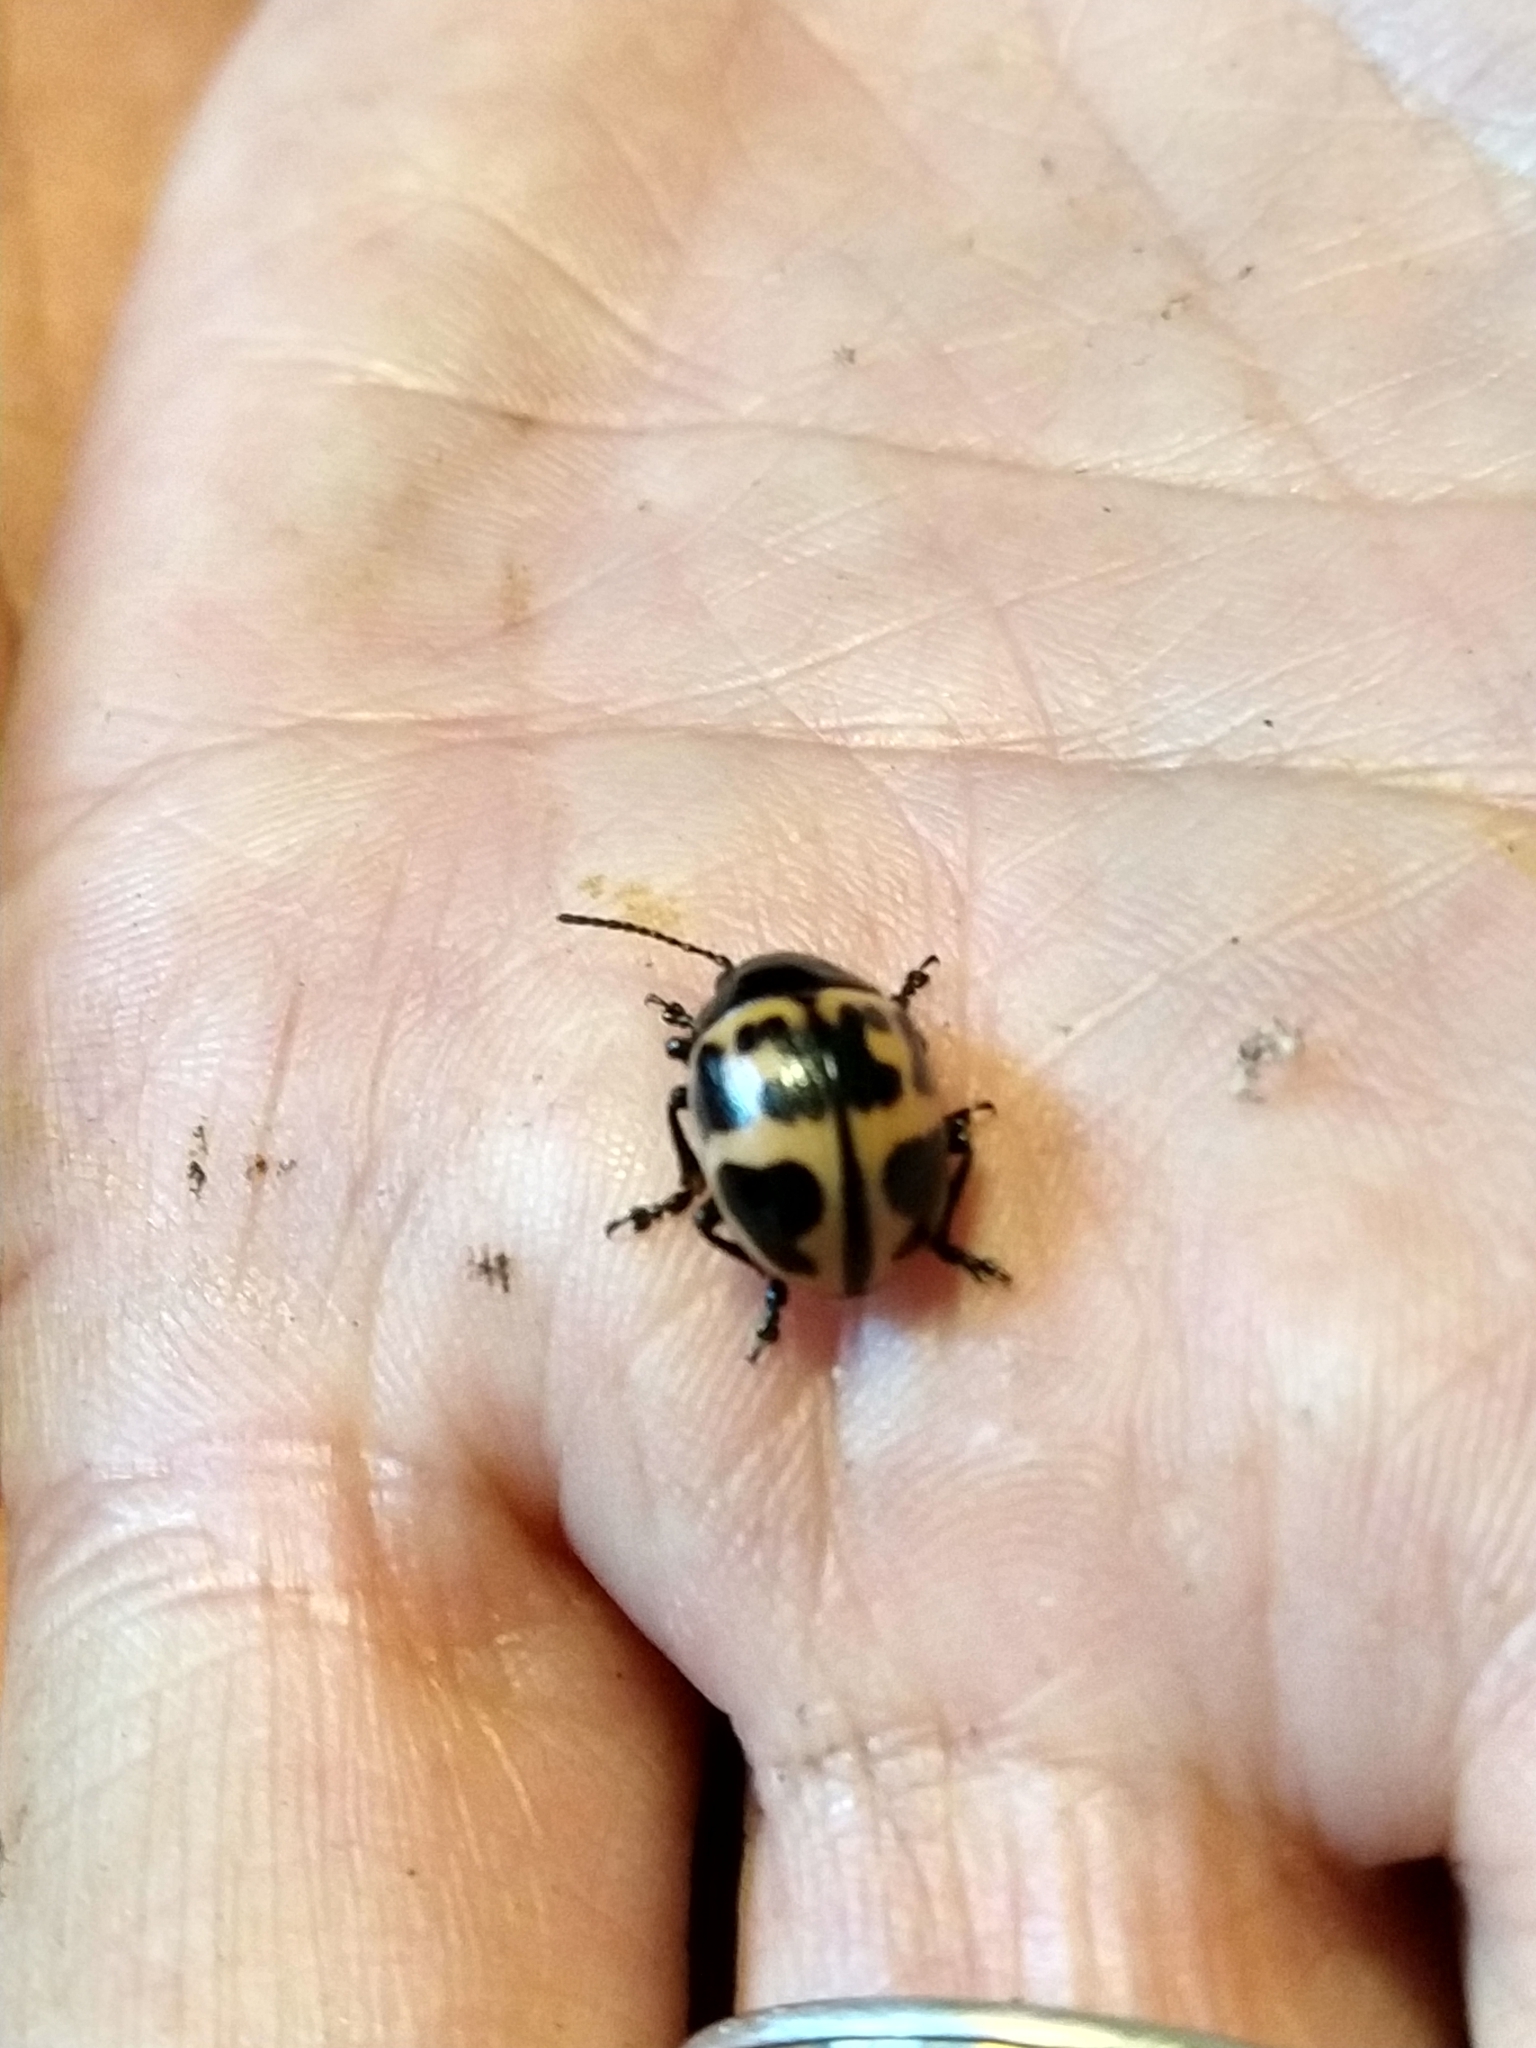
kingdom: Animalia
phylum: Arthropoda
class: Insecta
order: Coleoptera
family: Chrysomelidae
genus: Labidomera
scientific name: Labidomera clivicollis
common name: Swamp milkweed leaf beetle
